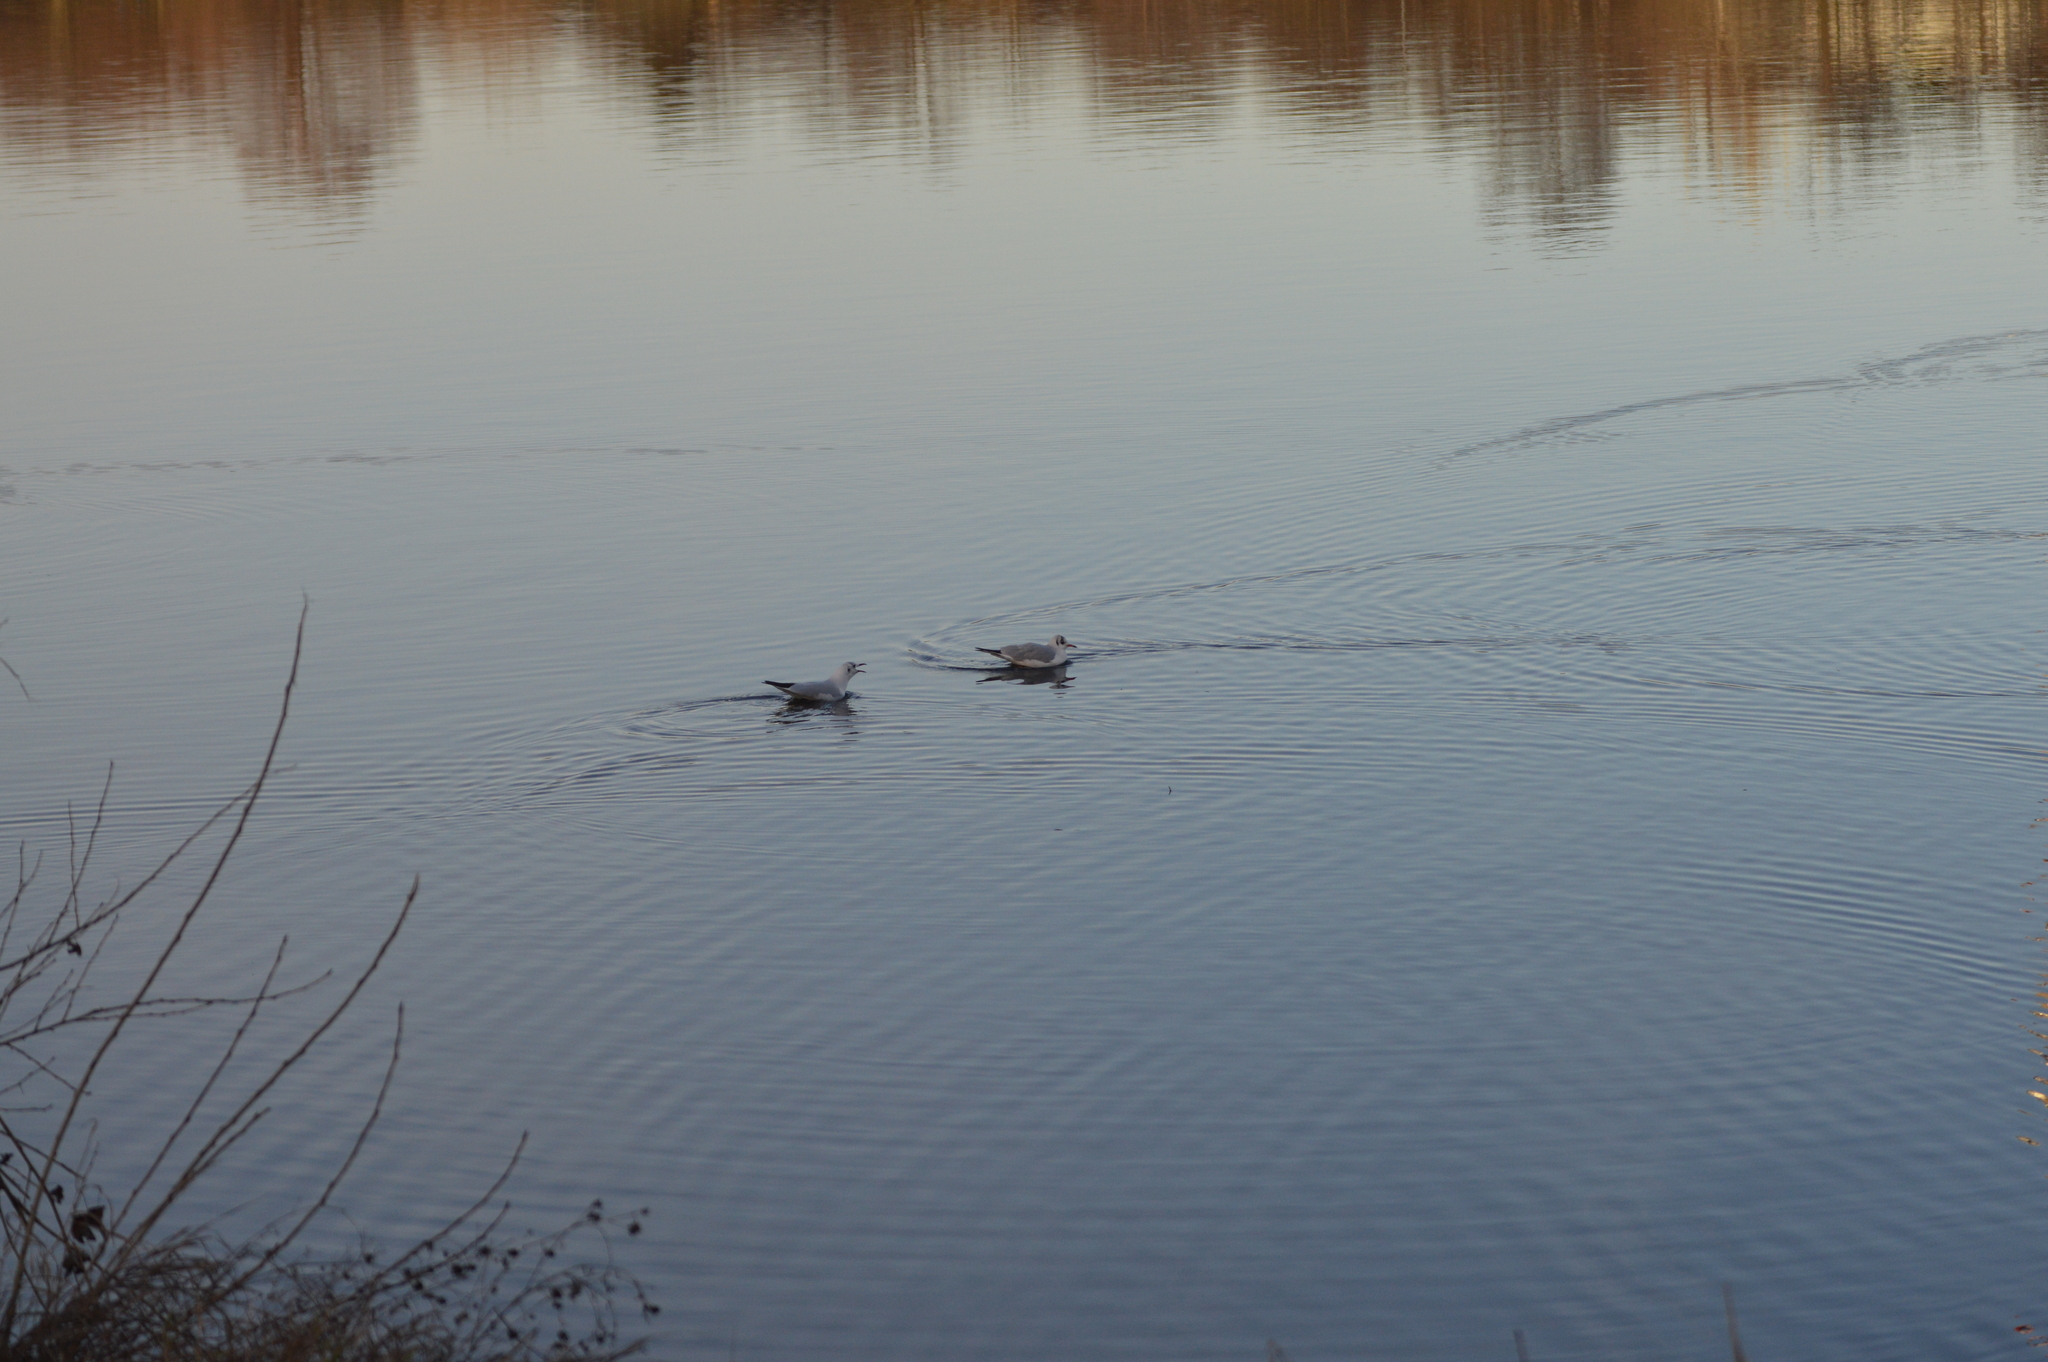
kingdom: Animalia
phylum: Chordata
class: Aves
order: Charadriiformes
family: Laridae
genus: Chroicocephalus
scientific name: Chroicocephalus ridibundus
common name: Black-headed gull
